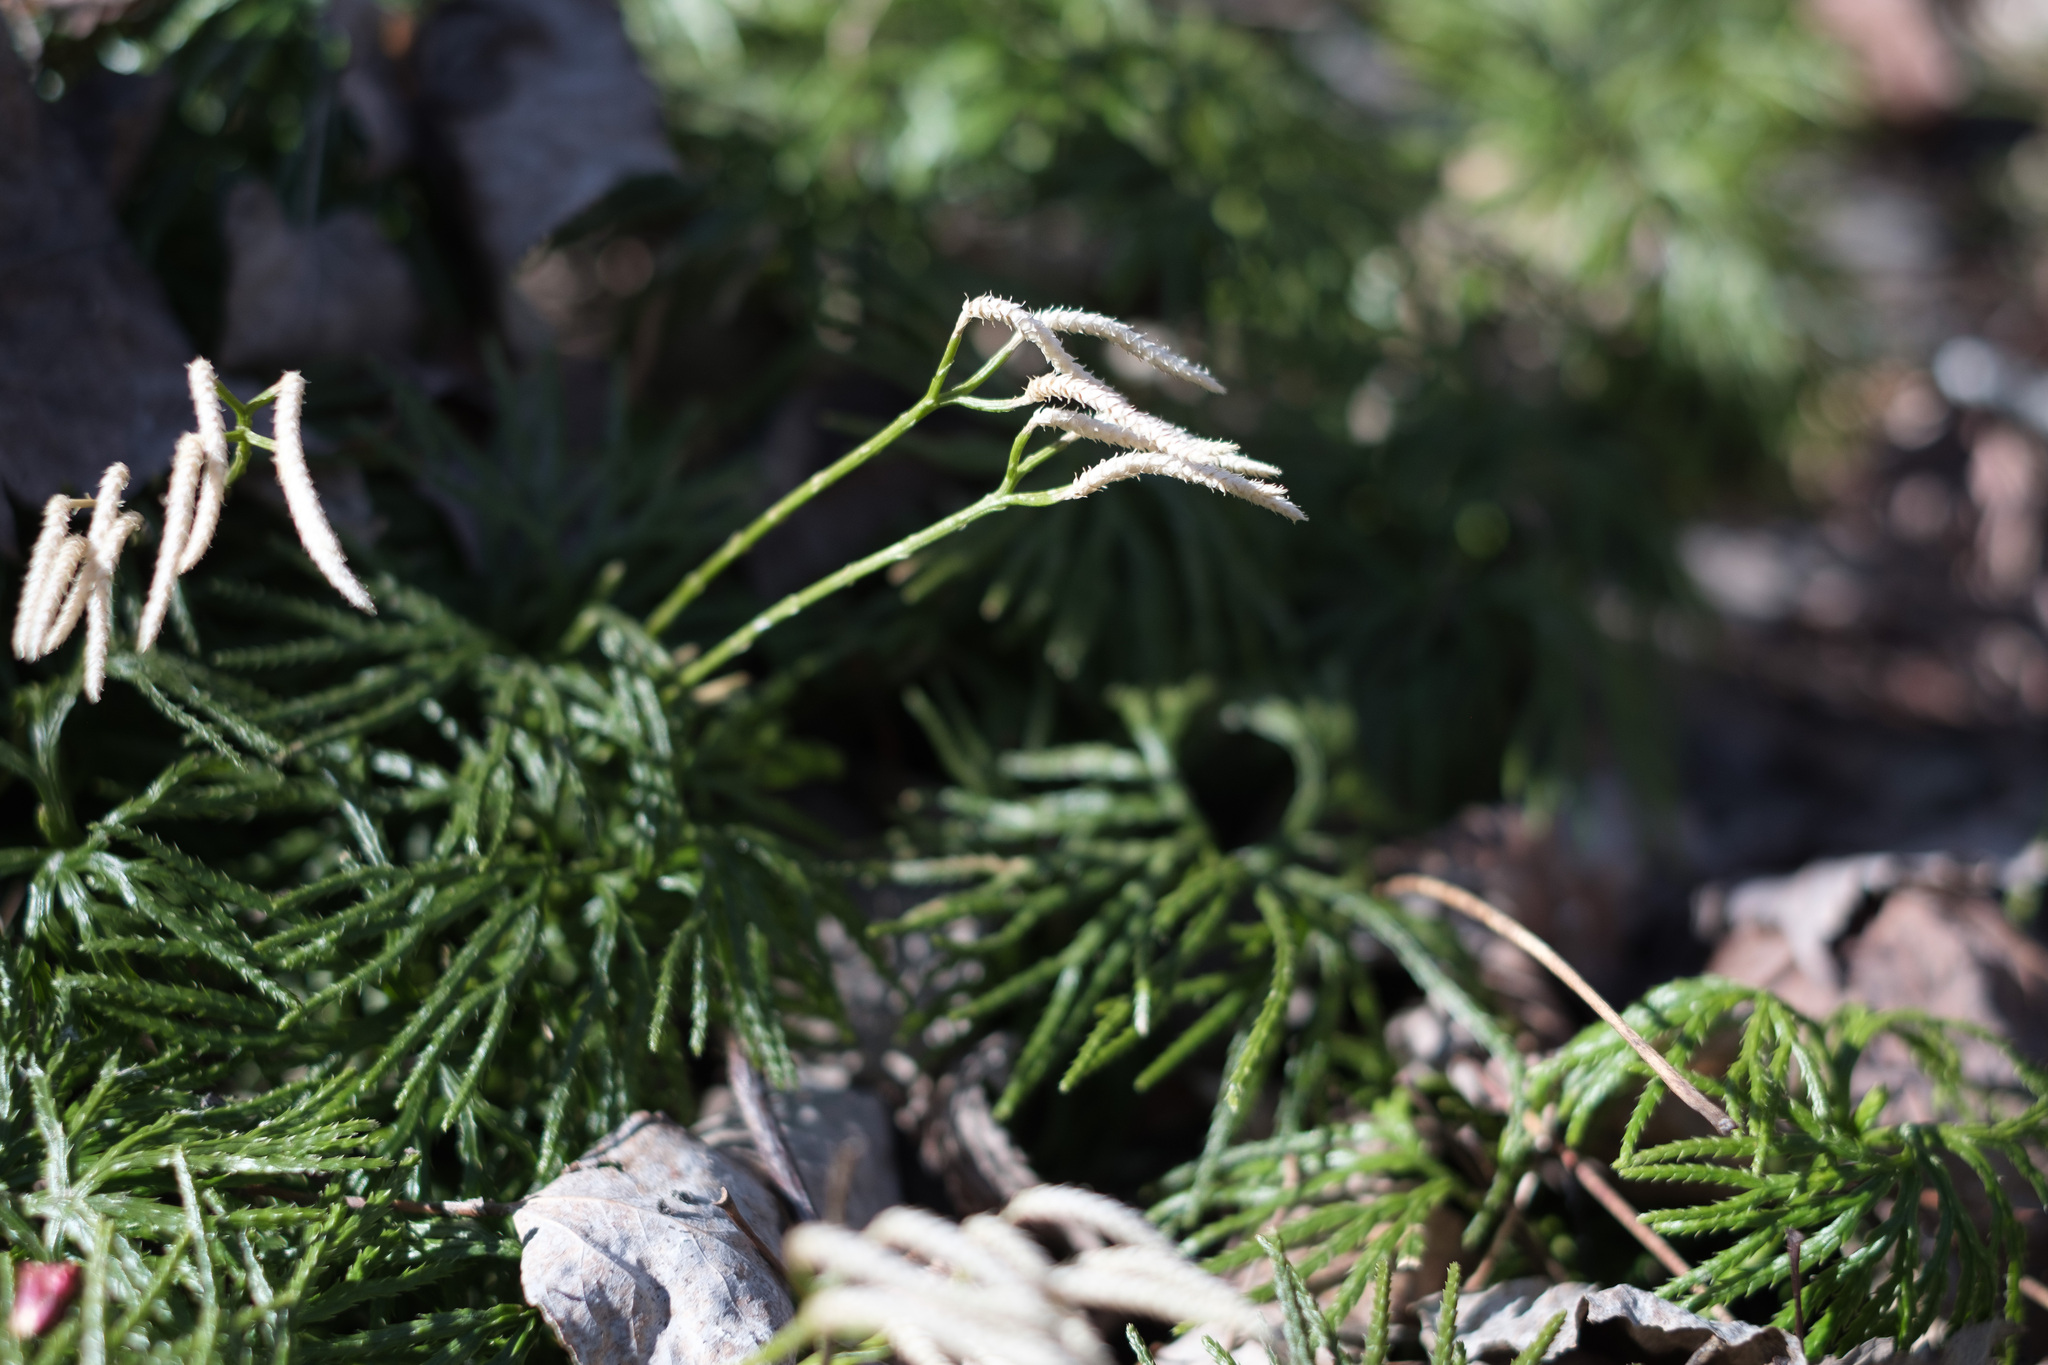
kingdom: Plantae
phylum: Tracheophyta
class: Lycopodiopsida
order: Lycopodiales
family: Lycopodiaceae
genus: Diphasiastrum
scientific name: Diphasiastrum digitatum
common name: Southern running-pine
